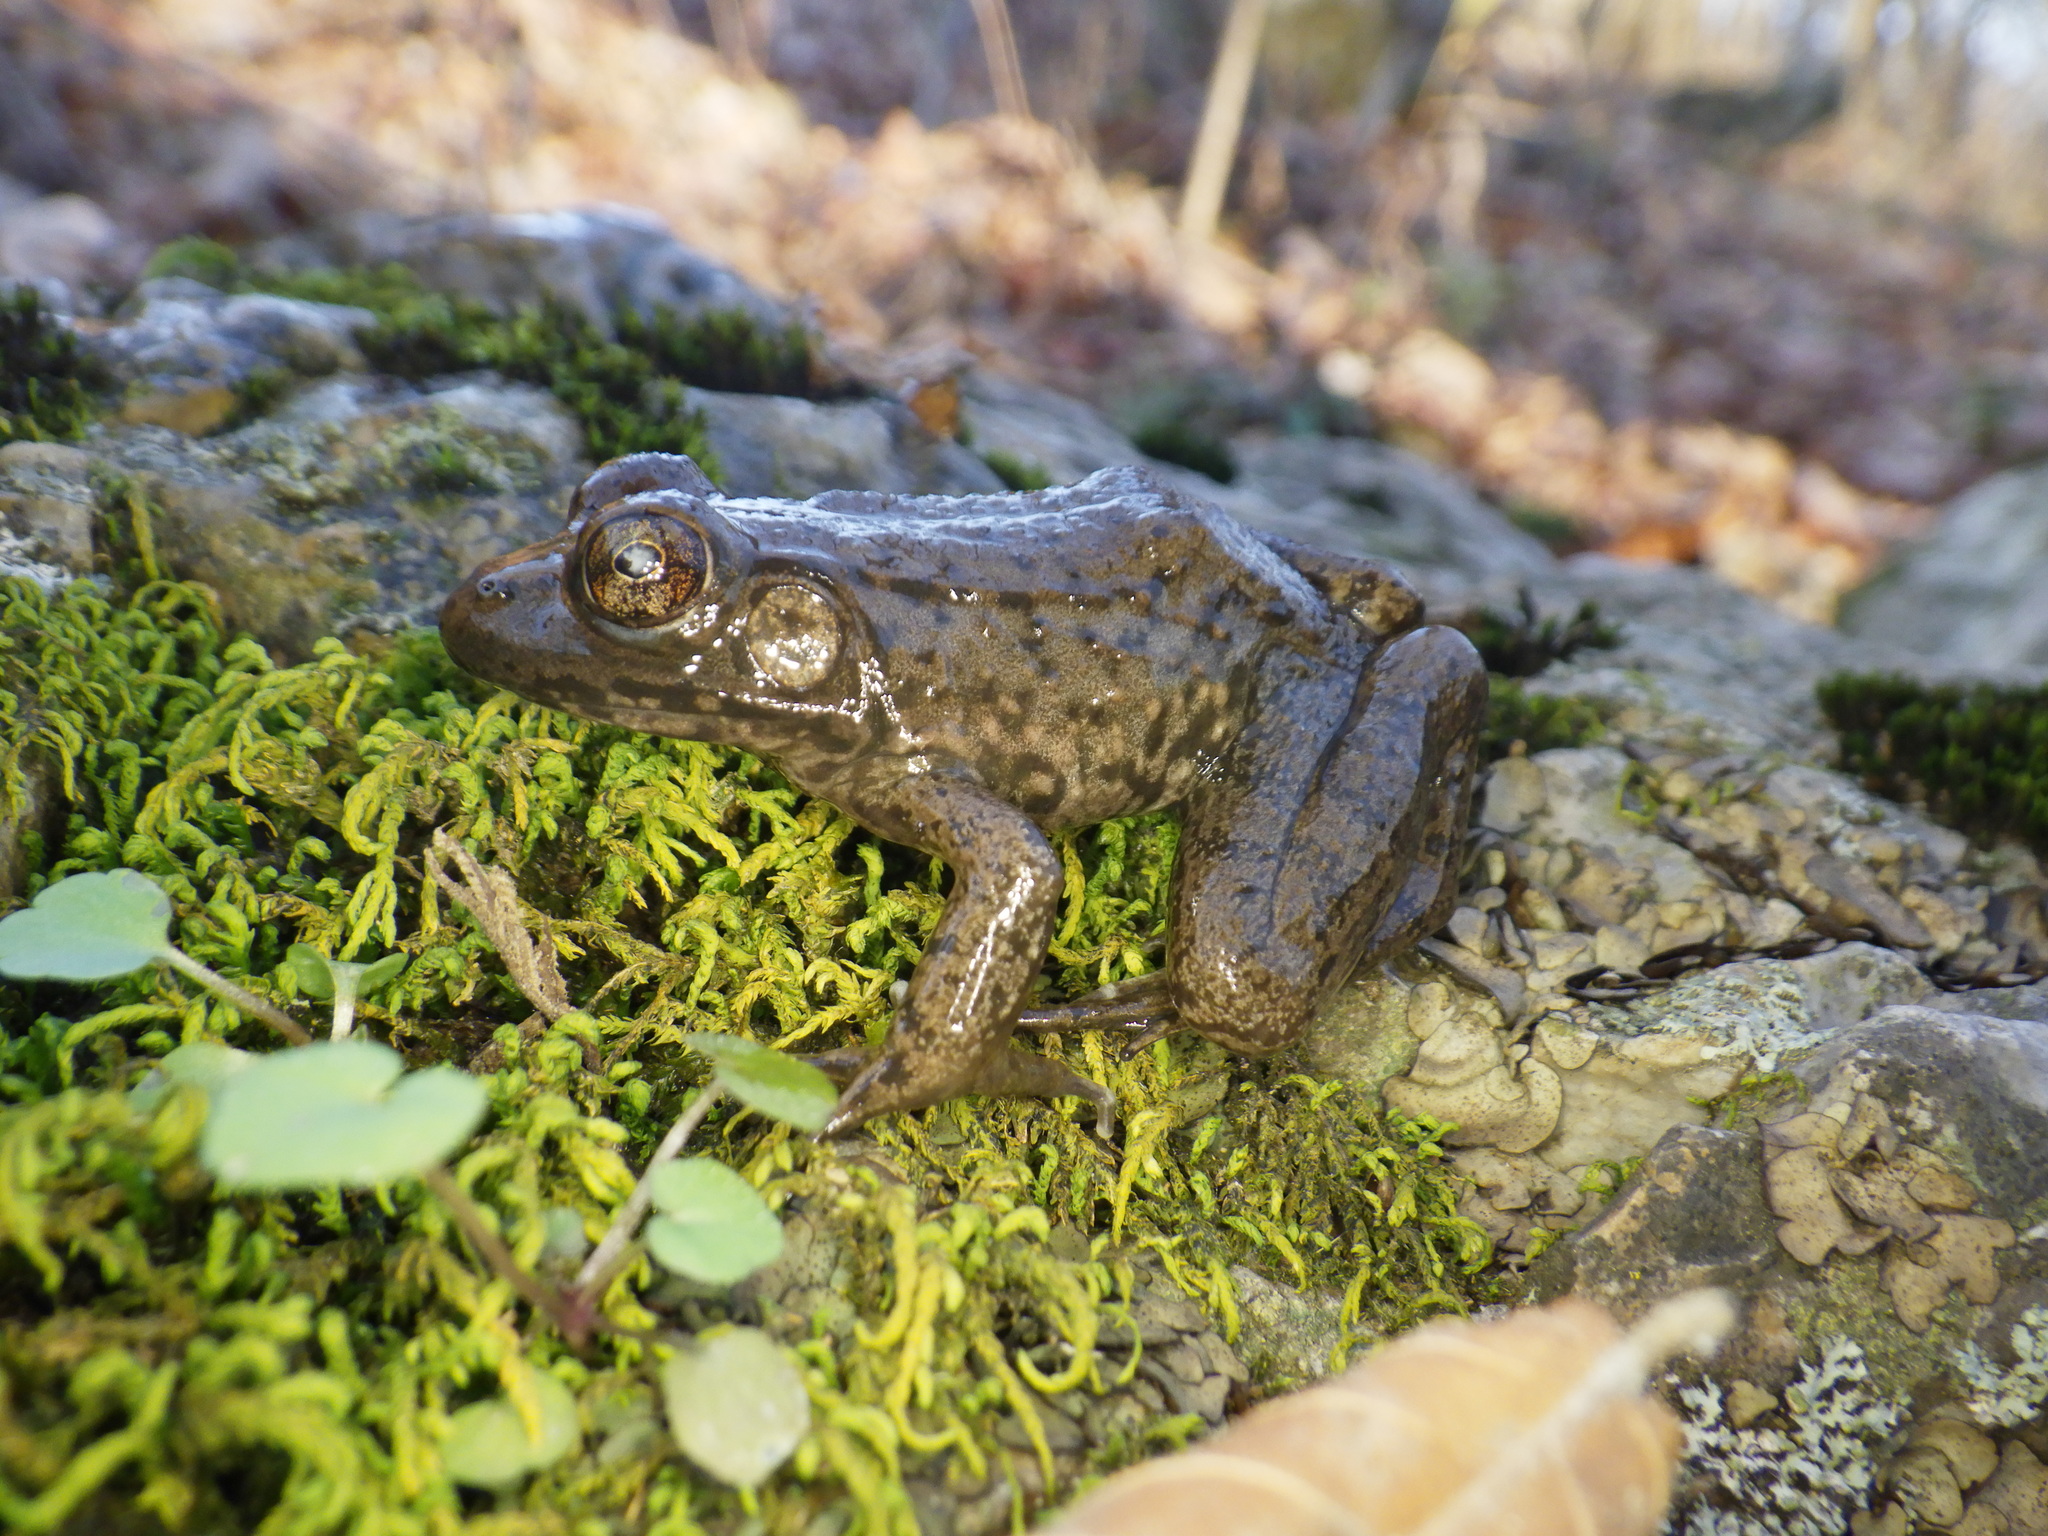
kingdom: Animalia
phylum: Chordata
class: Amphibia
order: Anura
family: Ranidae
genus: Lithobates
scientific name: Lithobates clamitans
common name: Green frog
